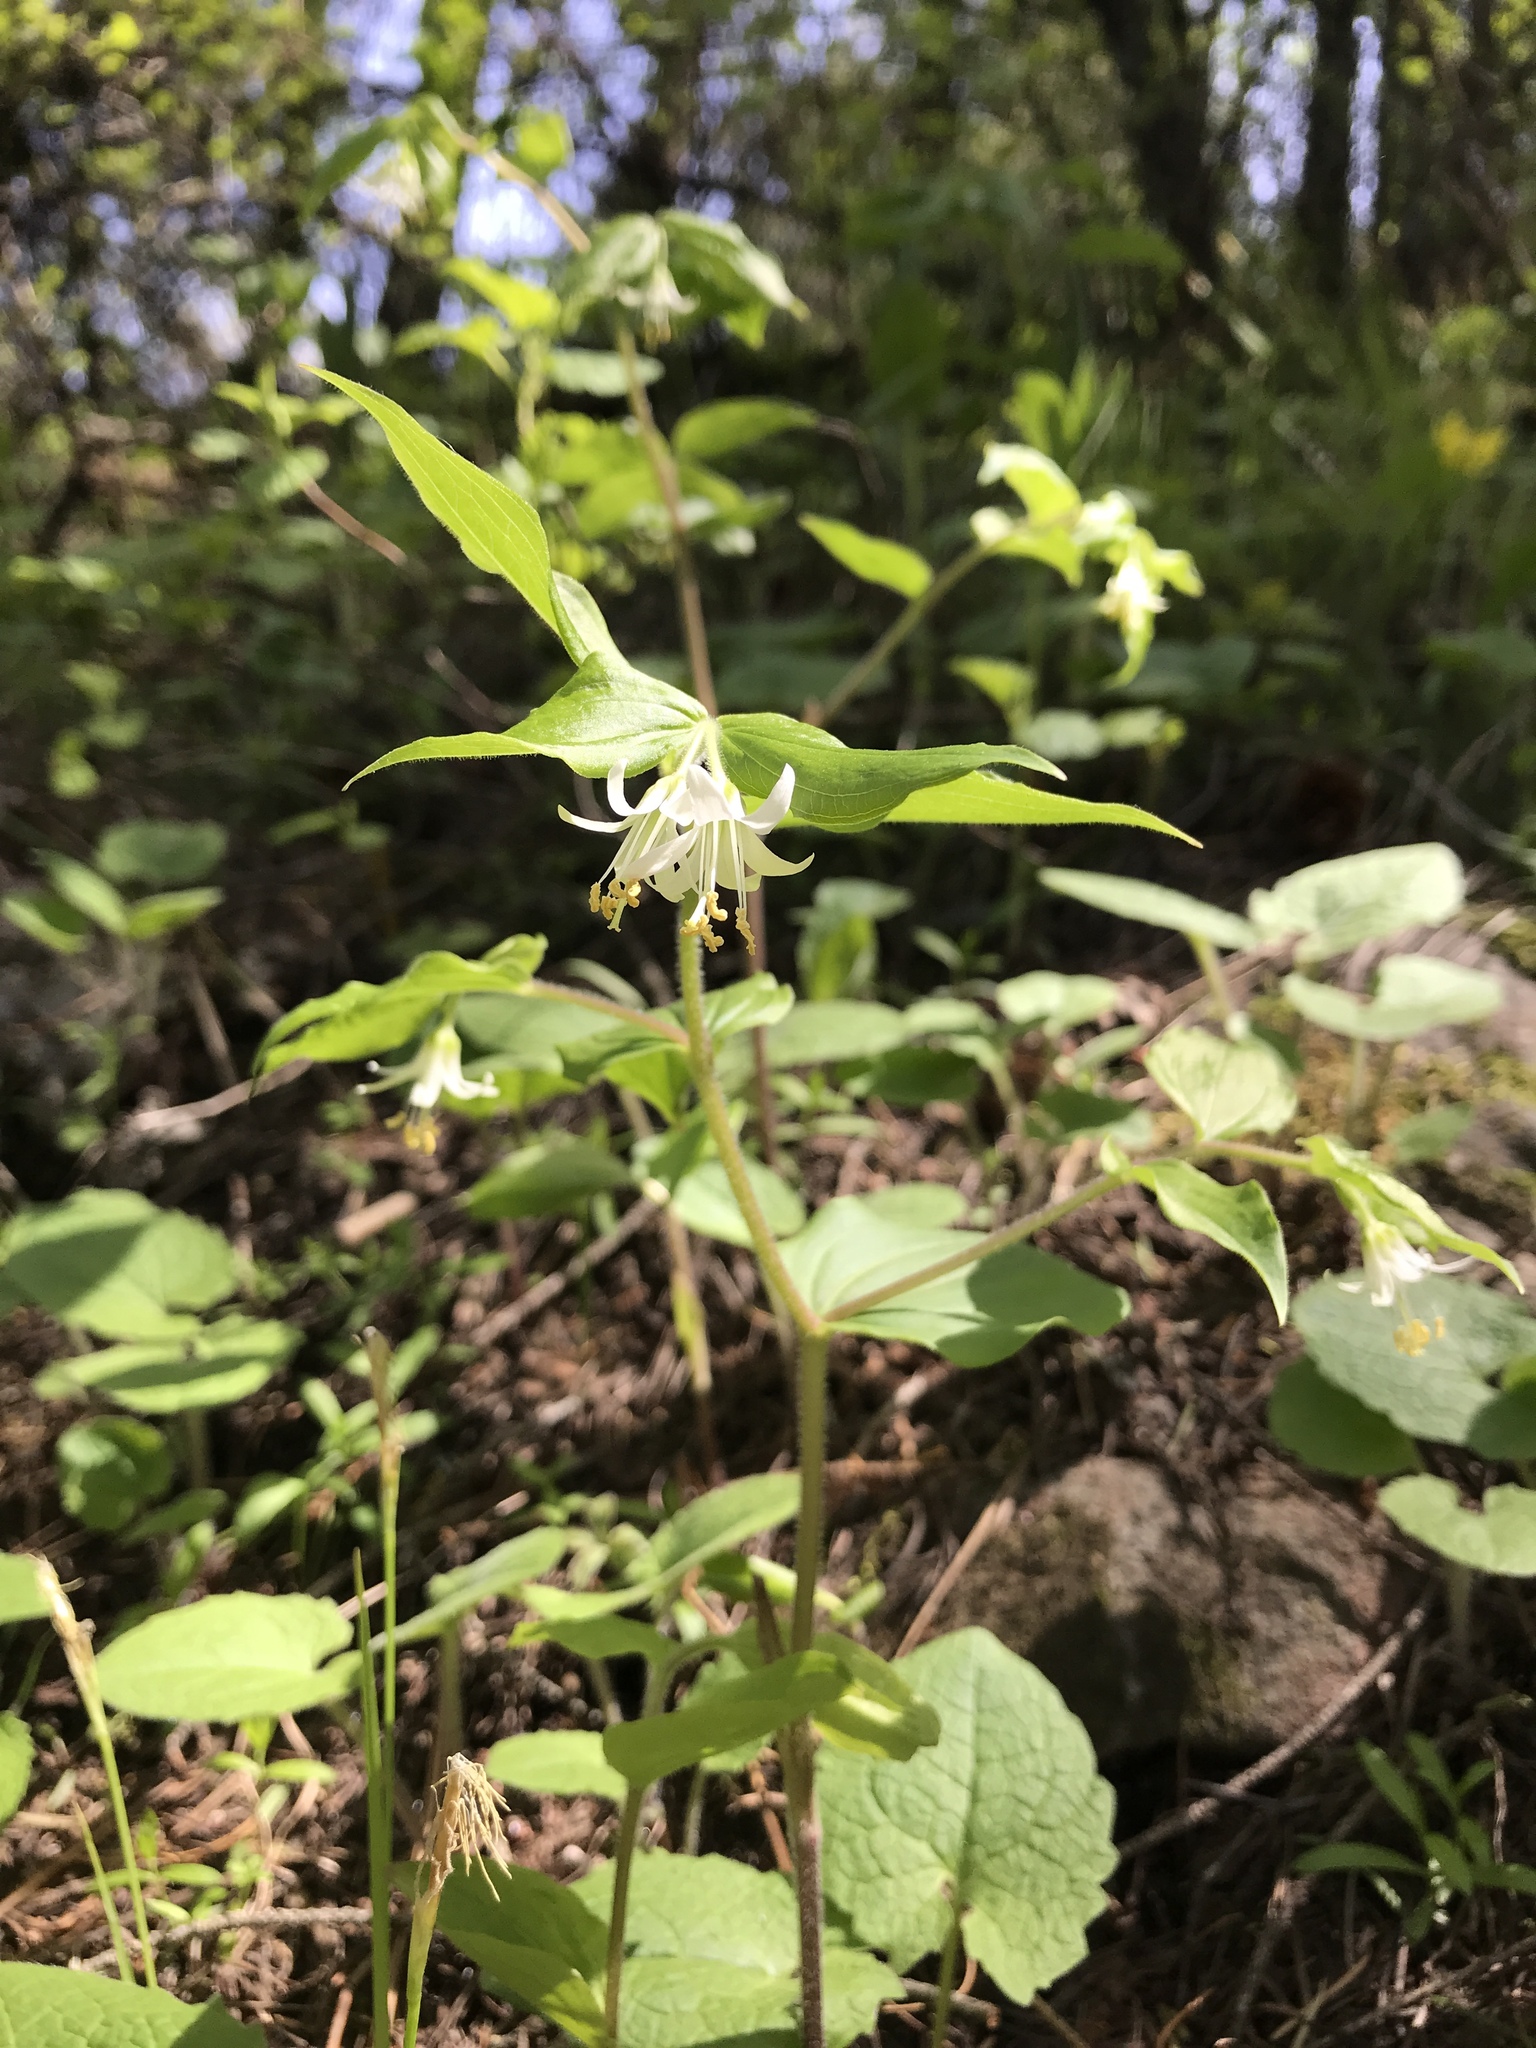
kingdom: Plantae
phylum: Tracheophyta
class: Liliopsida
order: Liliales
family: Liliaceae
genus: Prosartes
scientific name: Prosartes hookeri
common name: Fairy-bells
